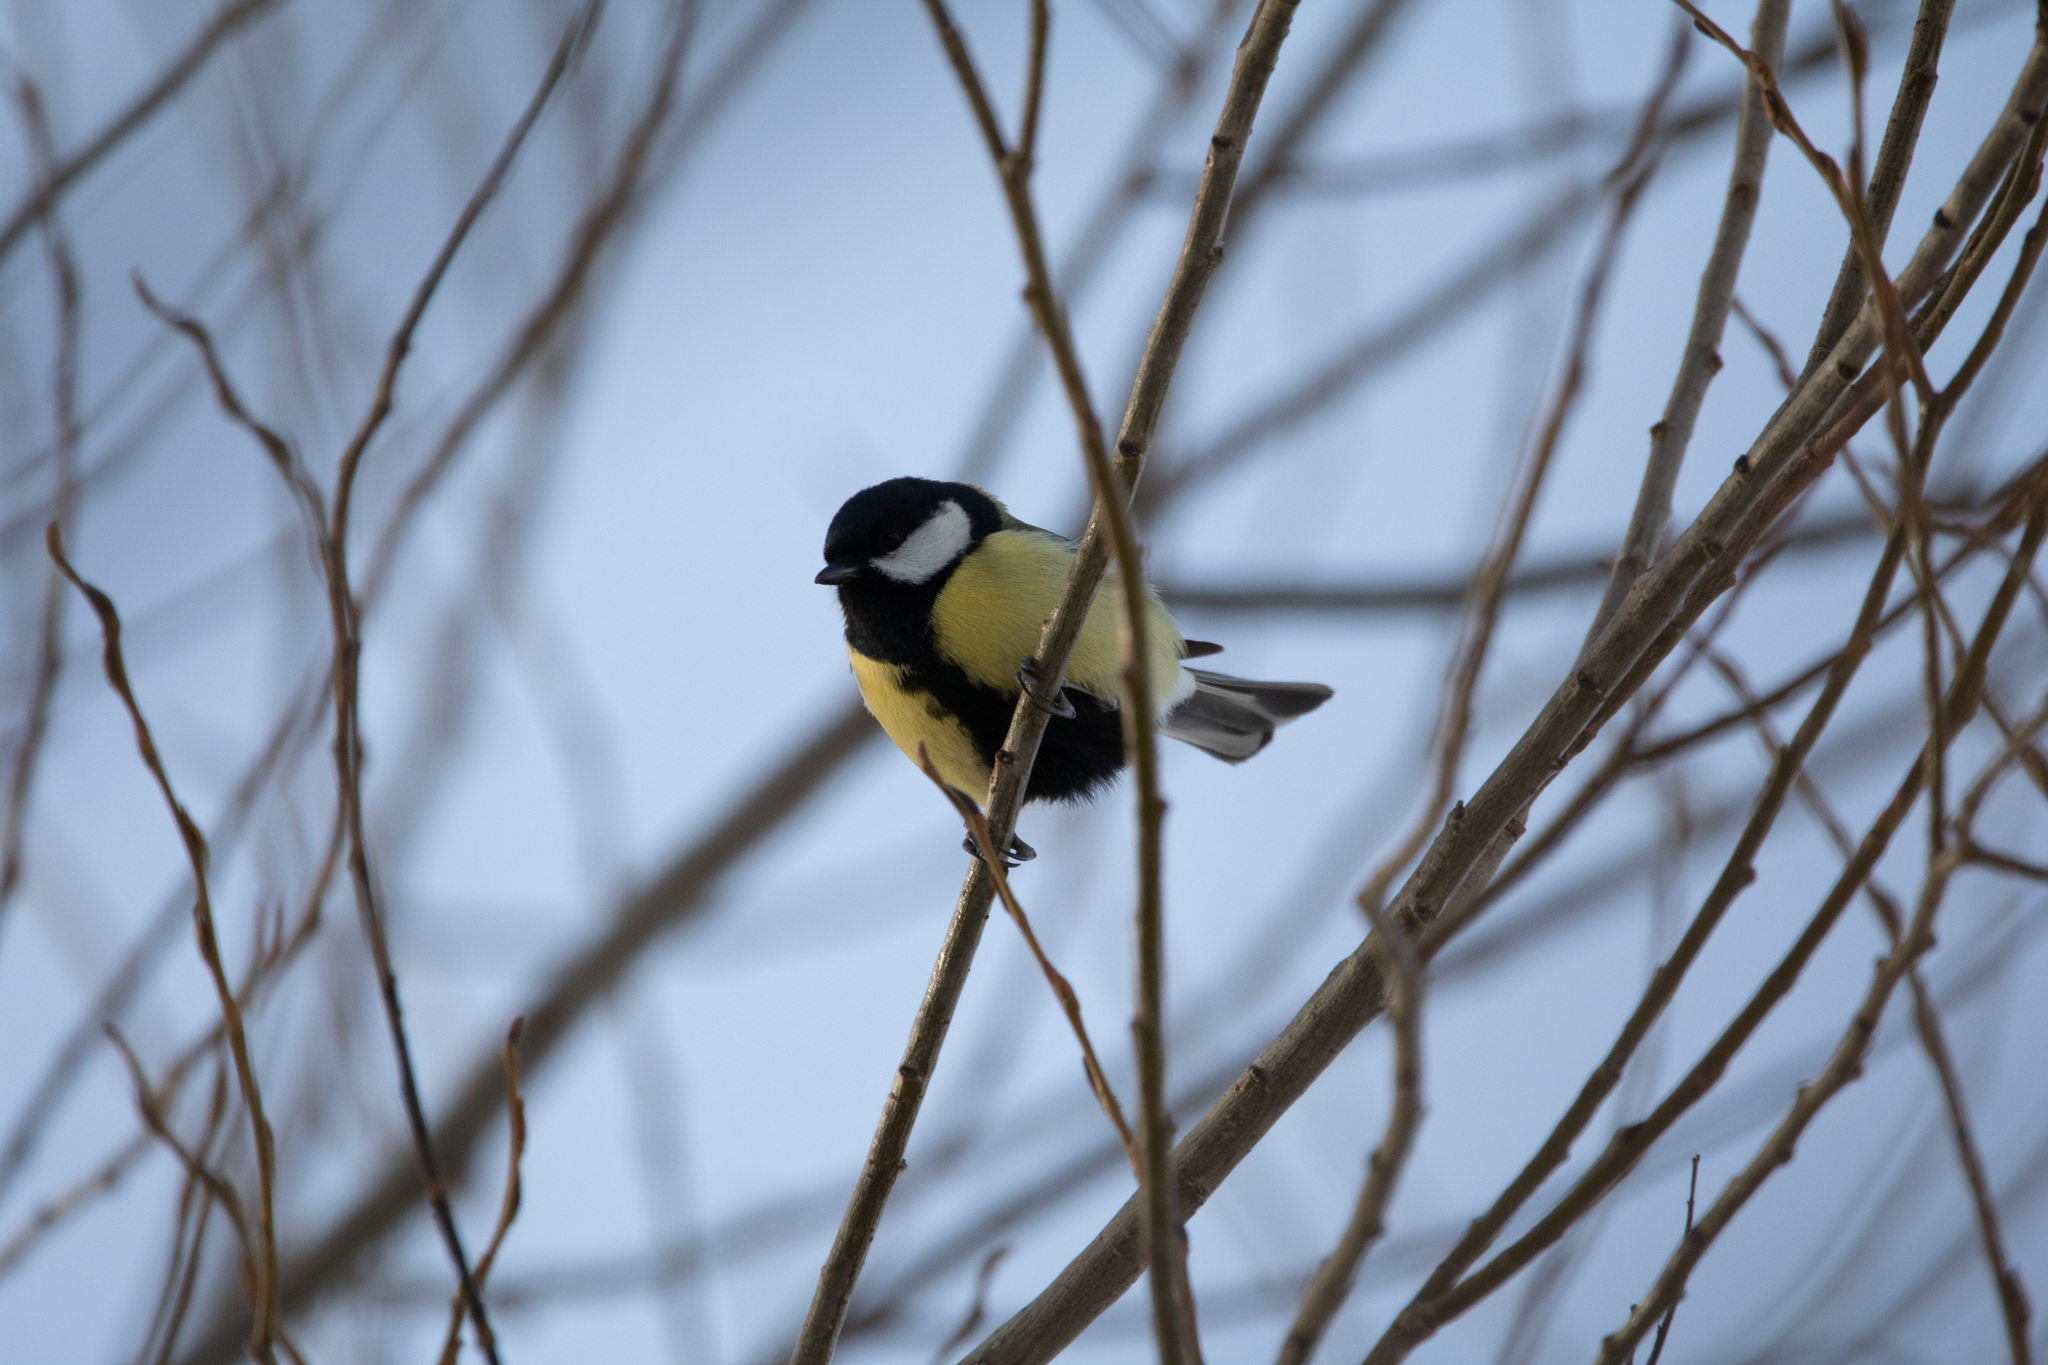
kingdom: Animalia
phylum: Chordata
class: Aves
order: Passeriformes
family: Paridae
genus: Parus
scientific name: Parus major
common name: Great tit
